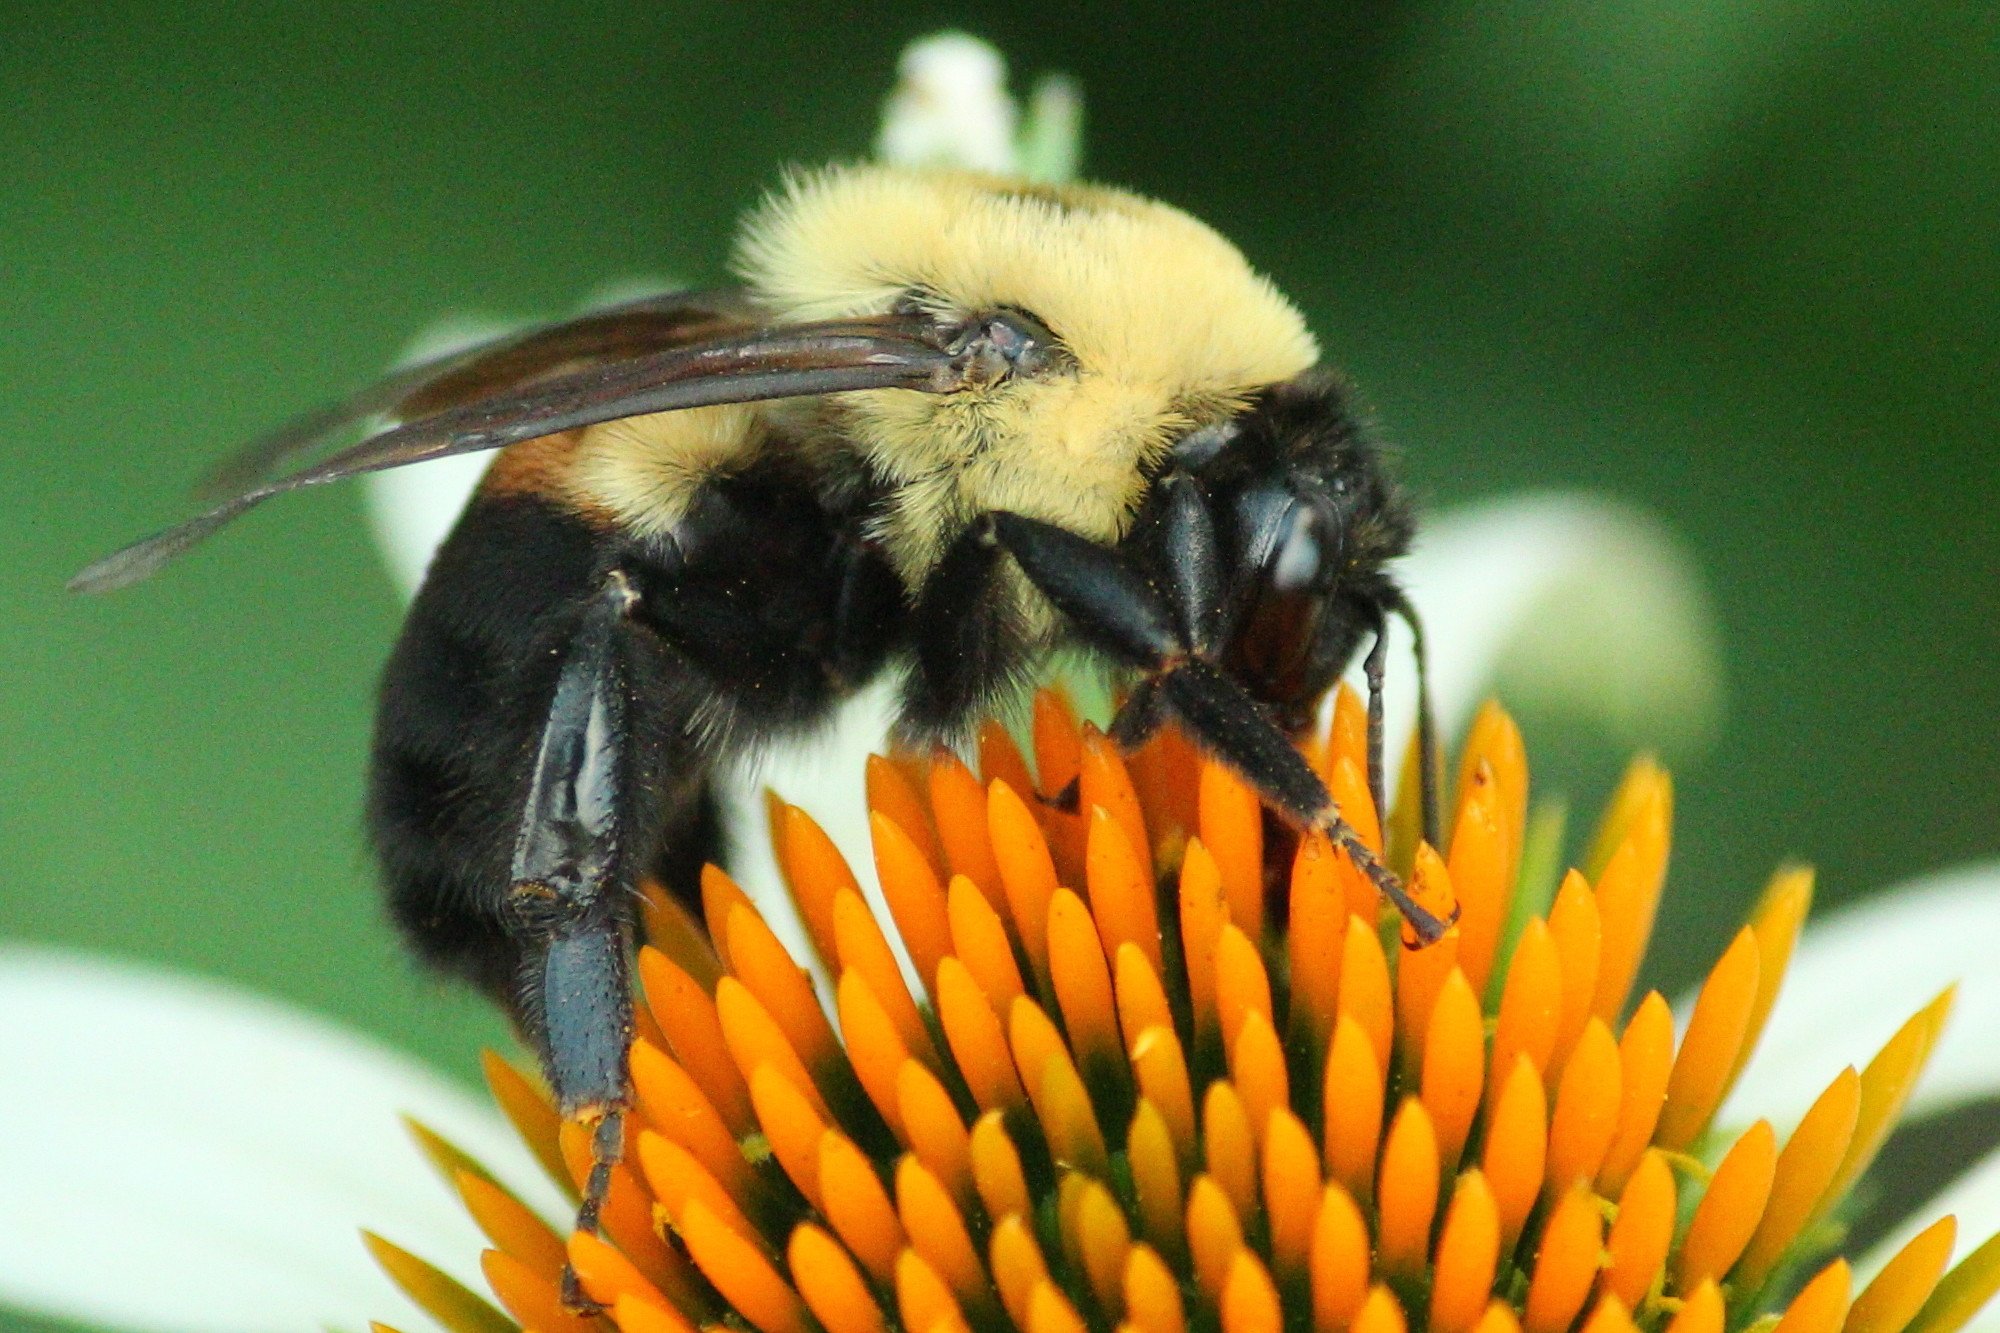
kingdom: Animalia
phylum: Arthropoda
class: Insecta
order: Hymenoptera
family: Apidae
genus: Bombus
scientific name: Bombus griseocollis
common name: Brown-belted bumble bee
